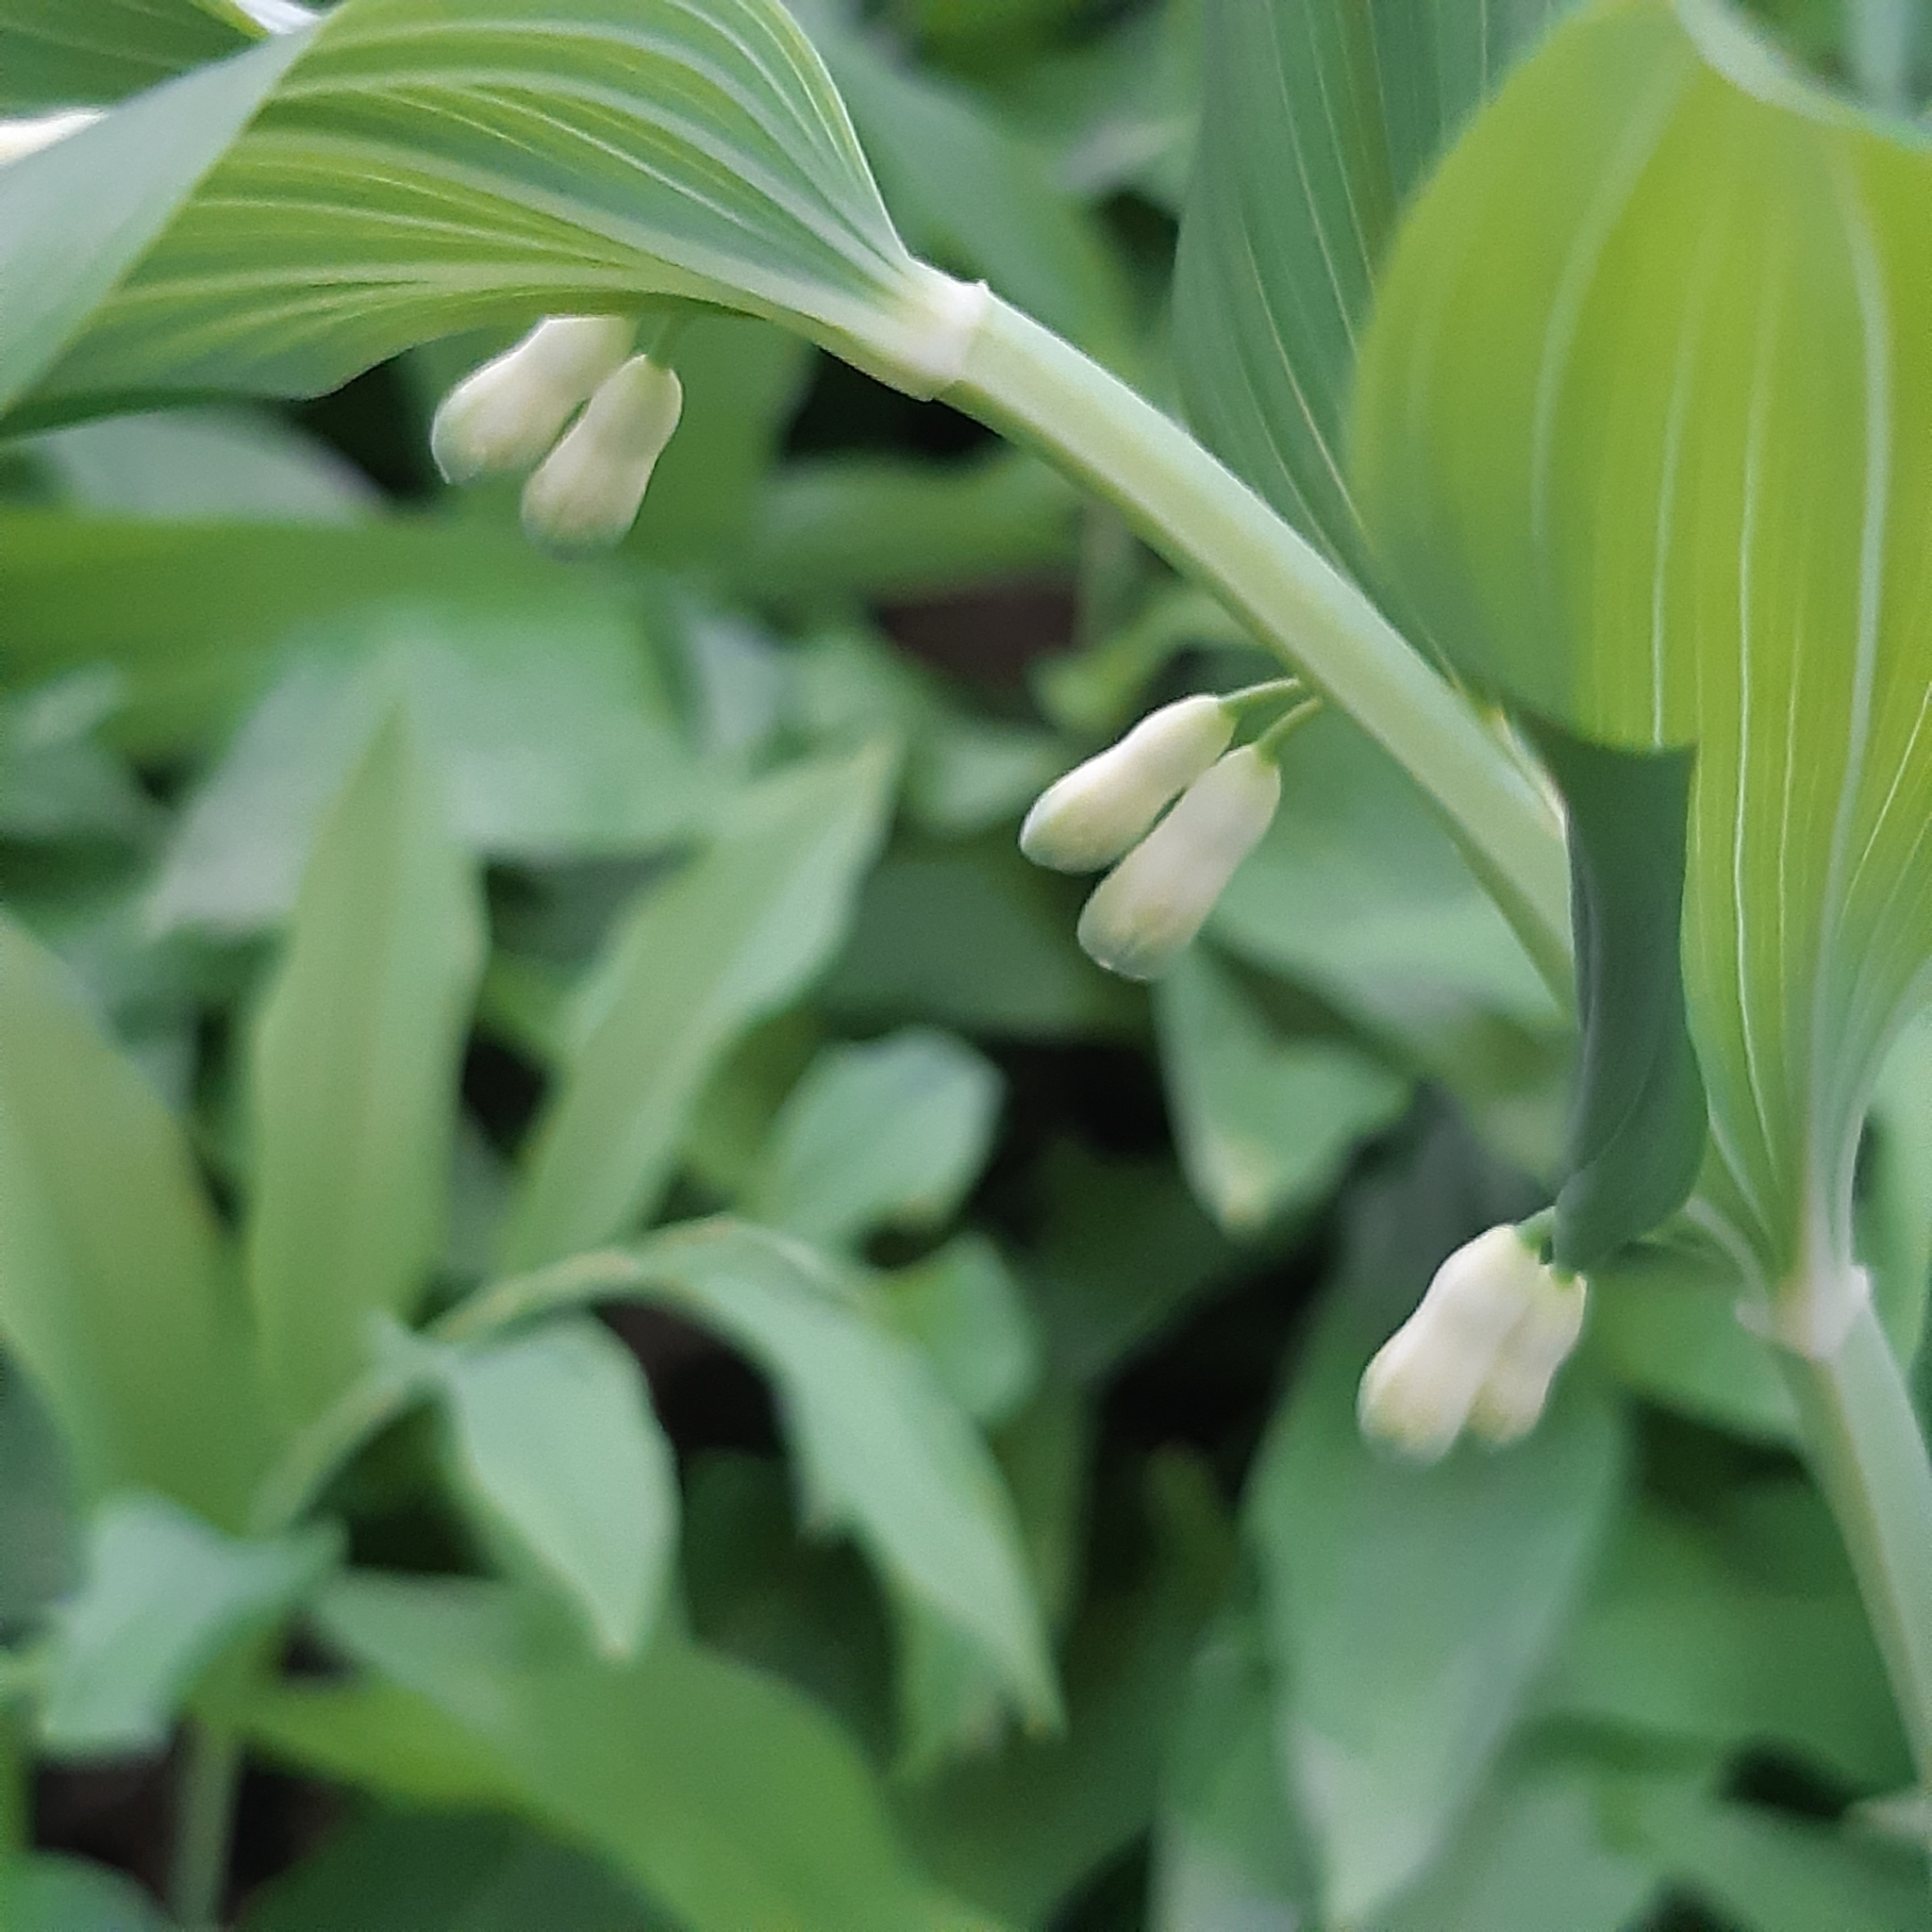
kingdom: Plantae
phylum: Tracheophyta
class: Liliopsida
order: Asparagales
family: Asparagaceae
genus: Polygonatum
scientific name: Polygonatum hybridum
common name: Garden solomon's-seal
